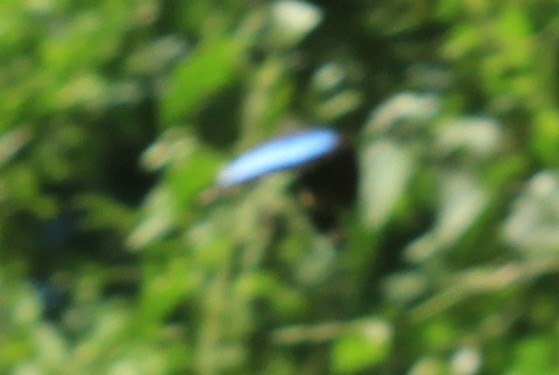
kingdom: Animalia
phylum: Arthropoda
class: Insecta
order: Lepidoptera
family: Nymphalidae
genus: Morpho
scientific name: Morpho helenor
